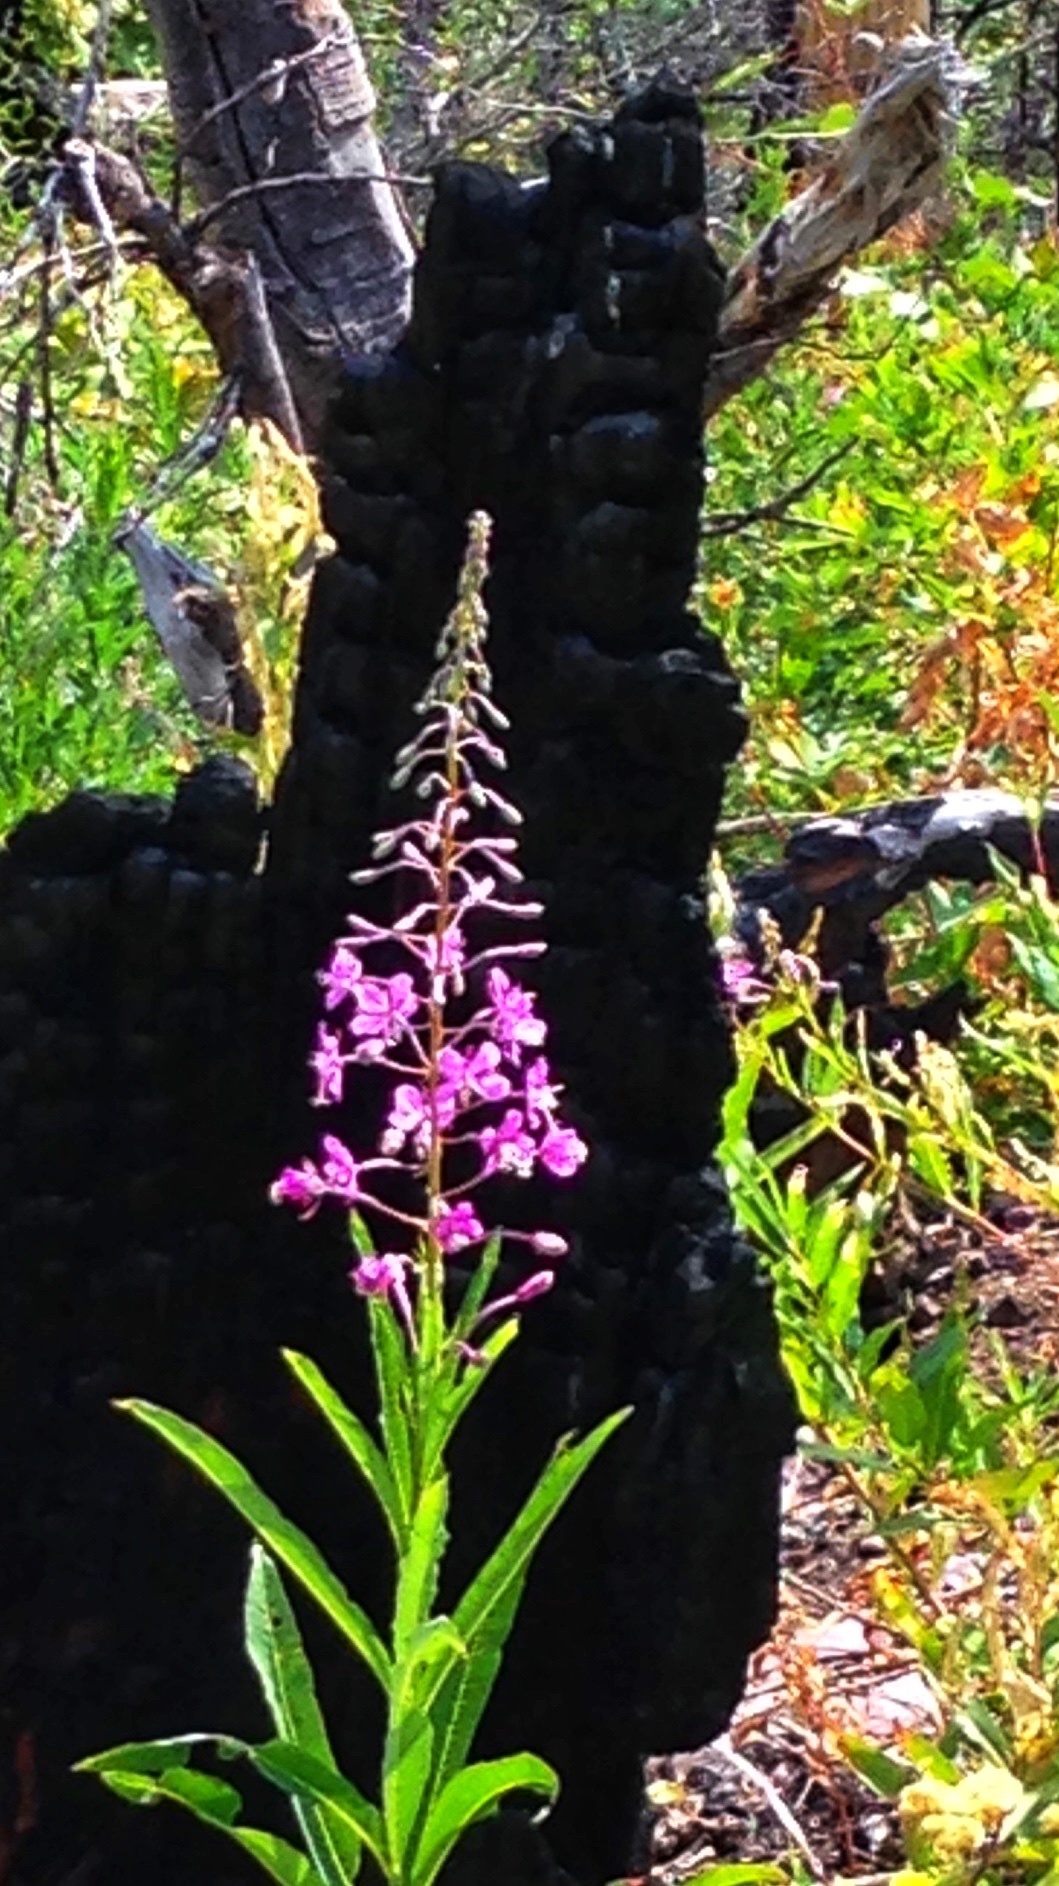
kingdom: Plantae
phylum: Tracheophyta
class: Magnoliopsida
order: Myrtales
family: Onagraceae
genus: Chamaenerion
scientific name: Chamaenerion angustifolium
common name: Fireweed
